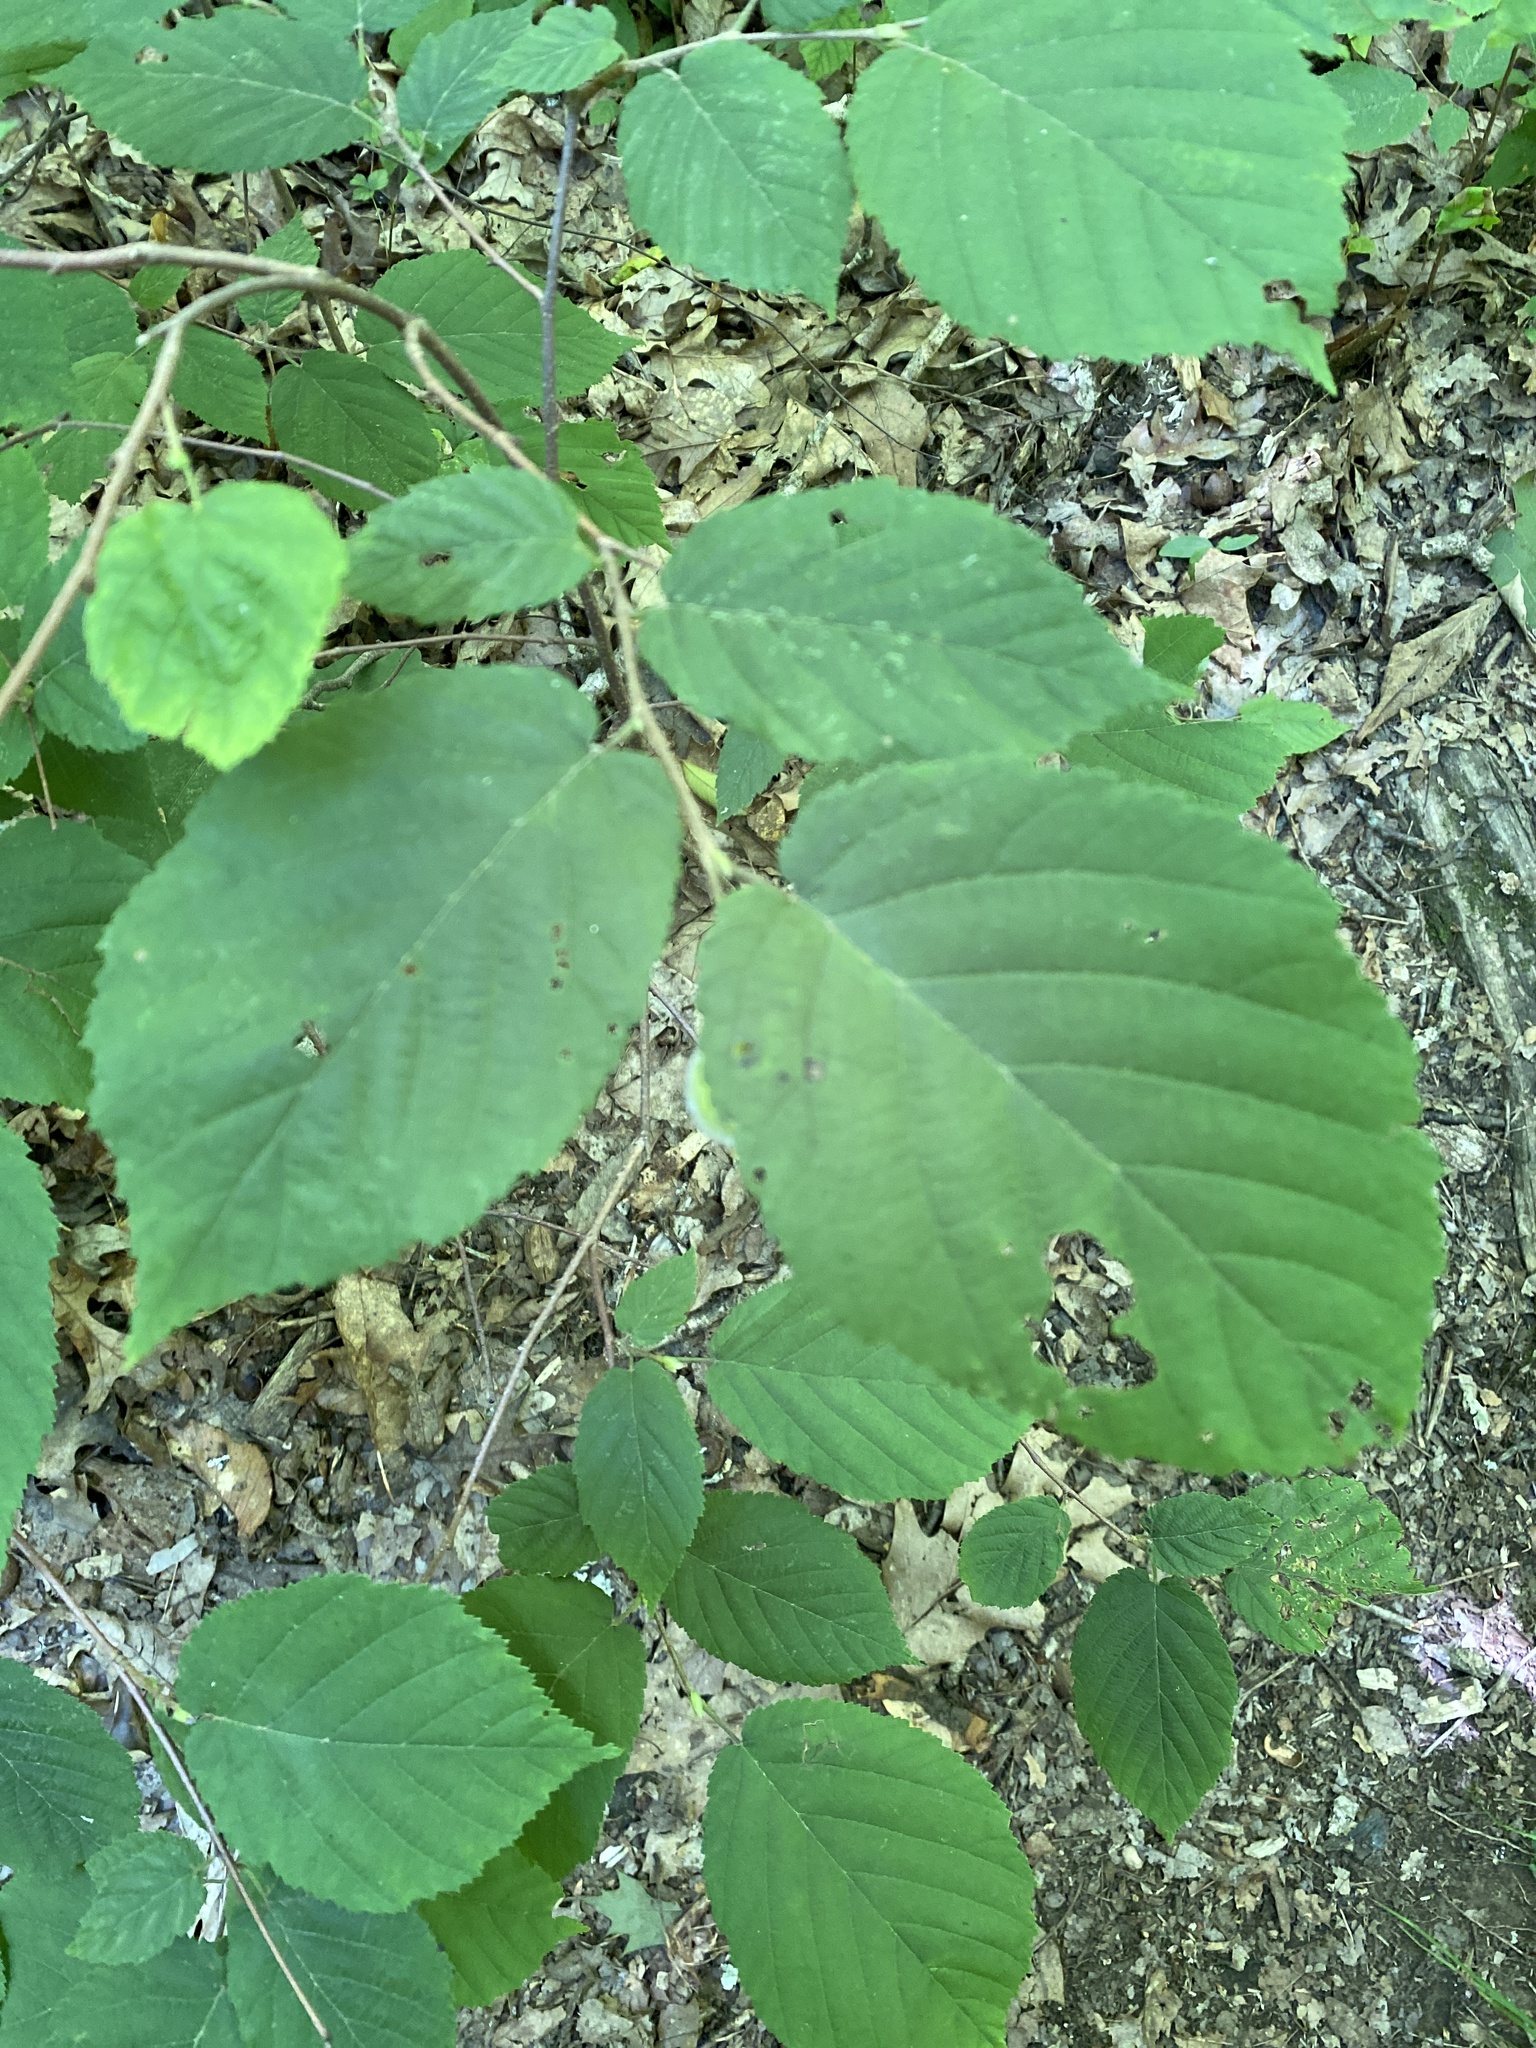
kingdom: Plantae
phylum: Tracheophyta
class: Magnoliopsida
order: Fagales
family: Betulaceae
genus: Corylus
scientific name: Corylus cornuta
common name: Beaked hazel
